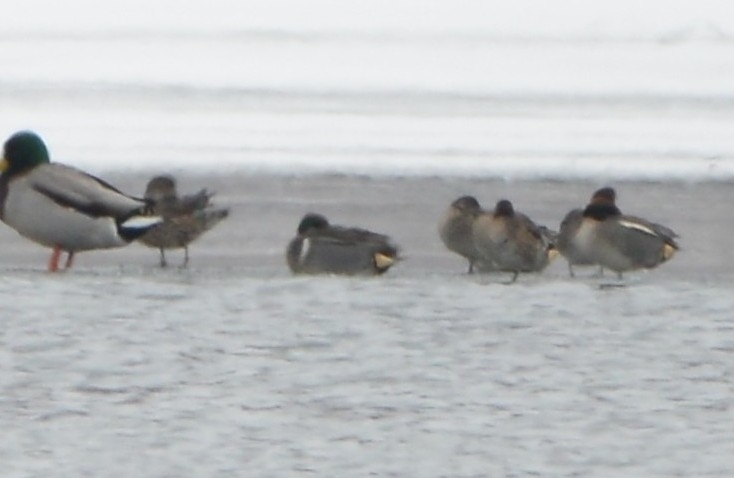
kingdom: Animalia
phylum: Chordata
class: Aves
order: Anseriformes
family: Anatidae
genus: Anas
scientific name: Anas carolinensis
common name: Green-winged teal
